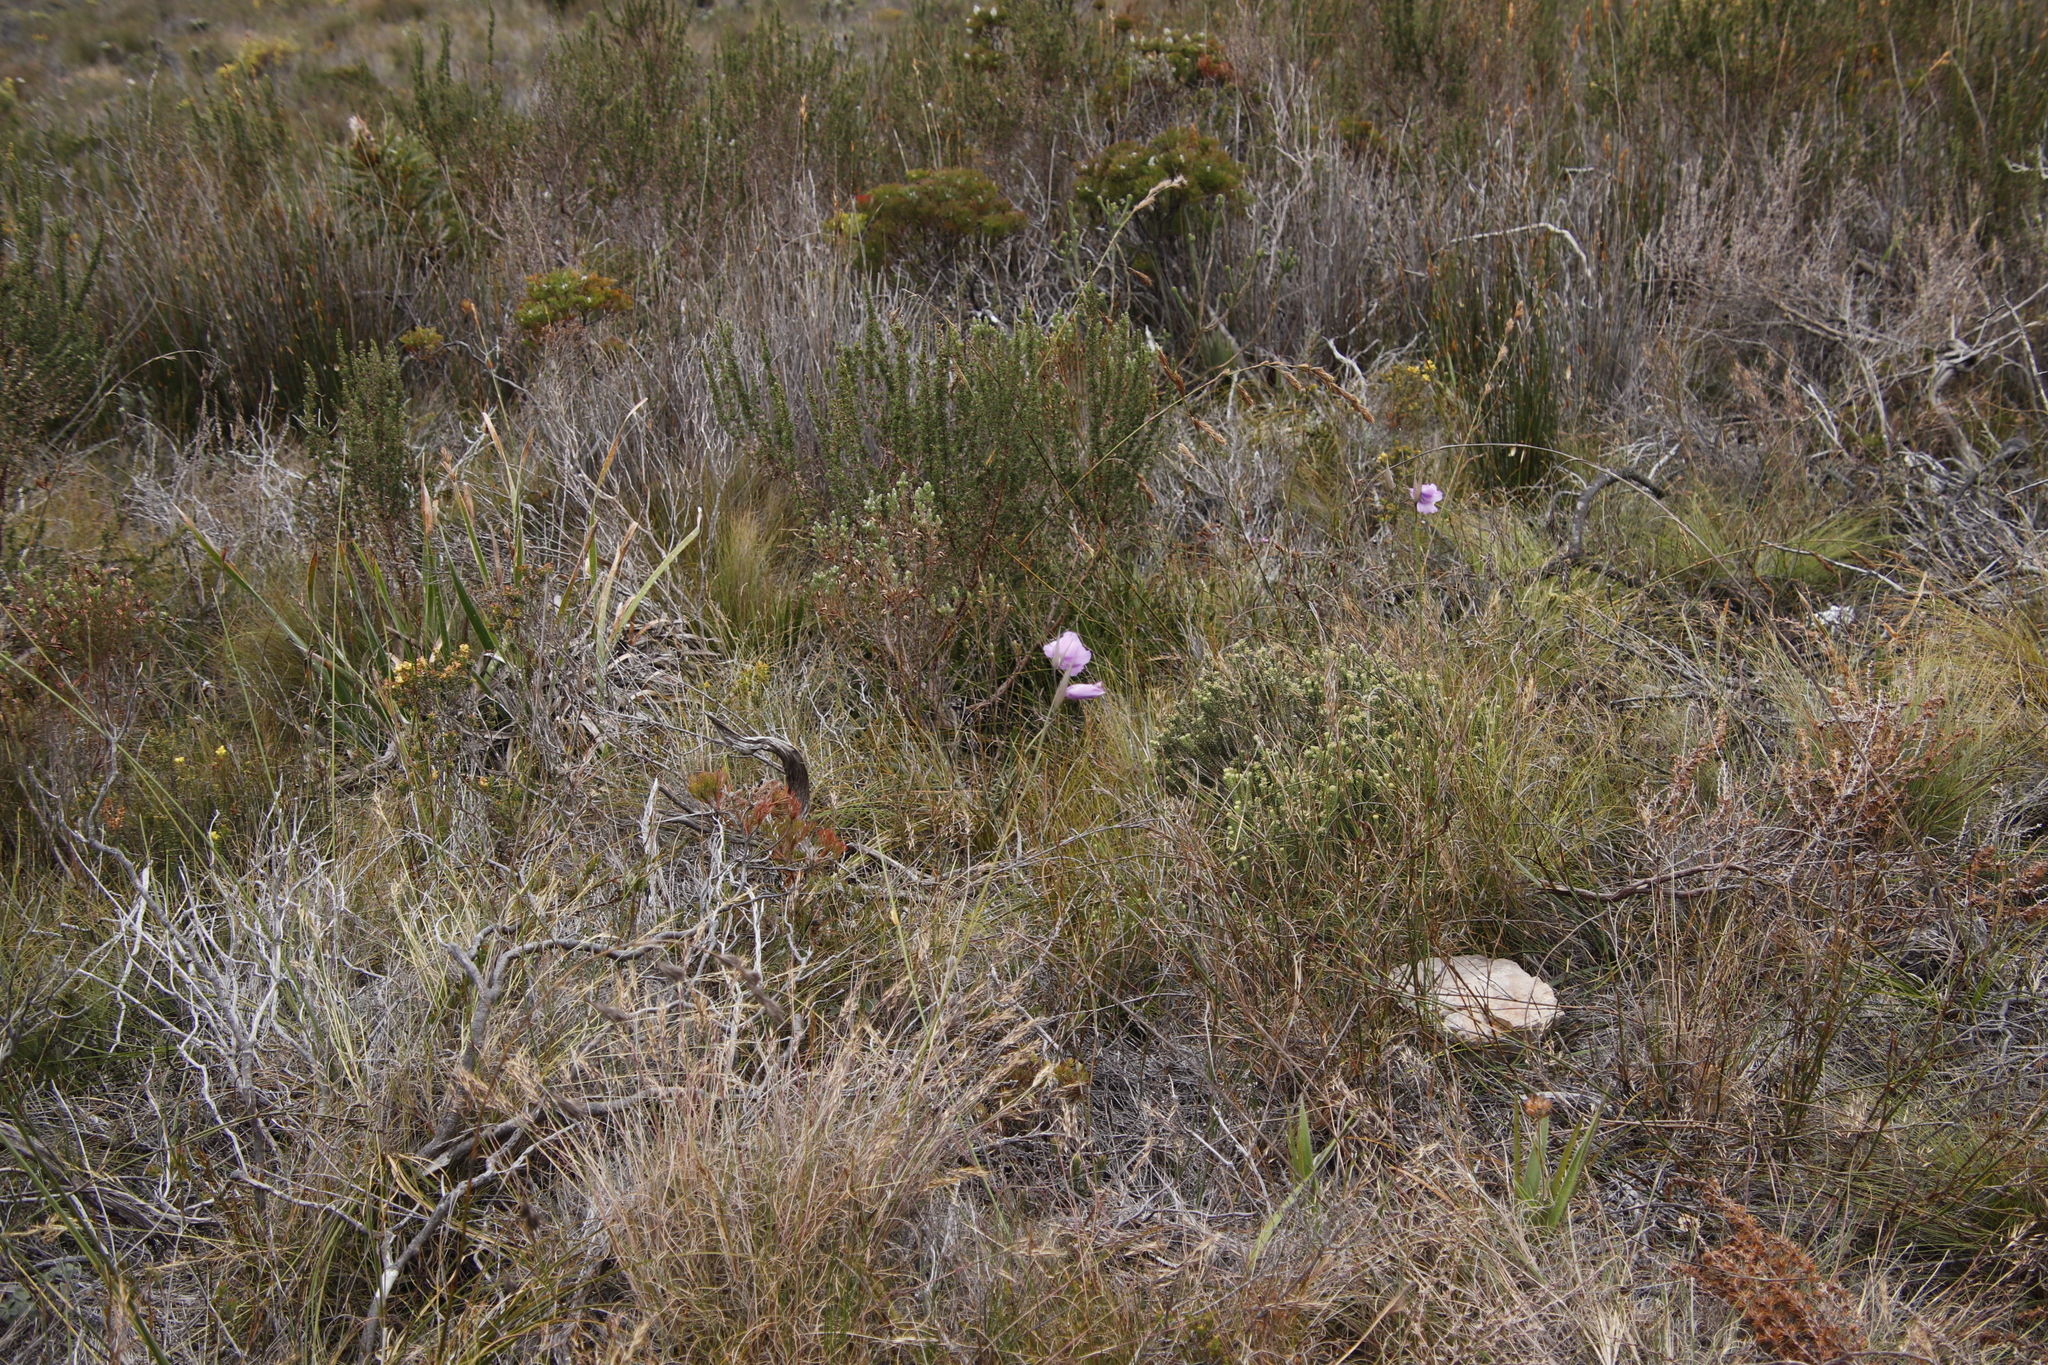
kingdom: Plantae
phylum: Tracheophyta
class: Liliopsida
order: Asparagales
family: Iridaceae
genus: Gladiolus
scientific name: Gladiolus bullatus
